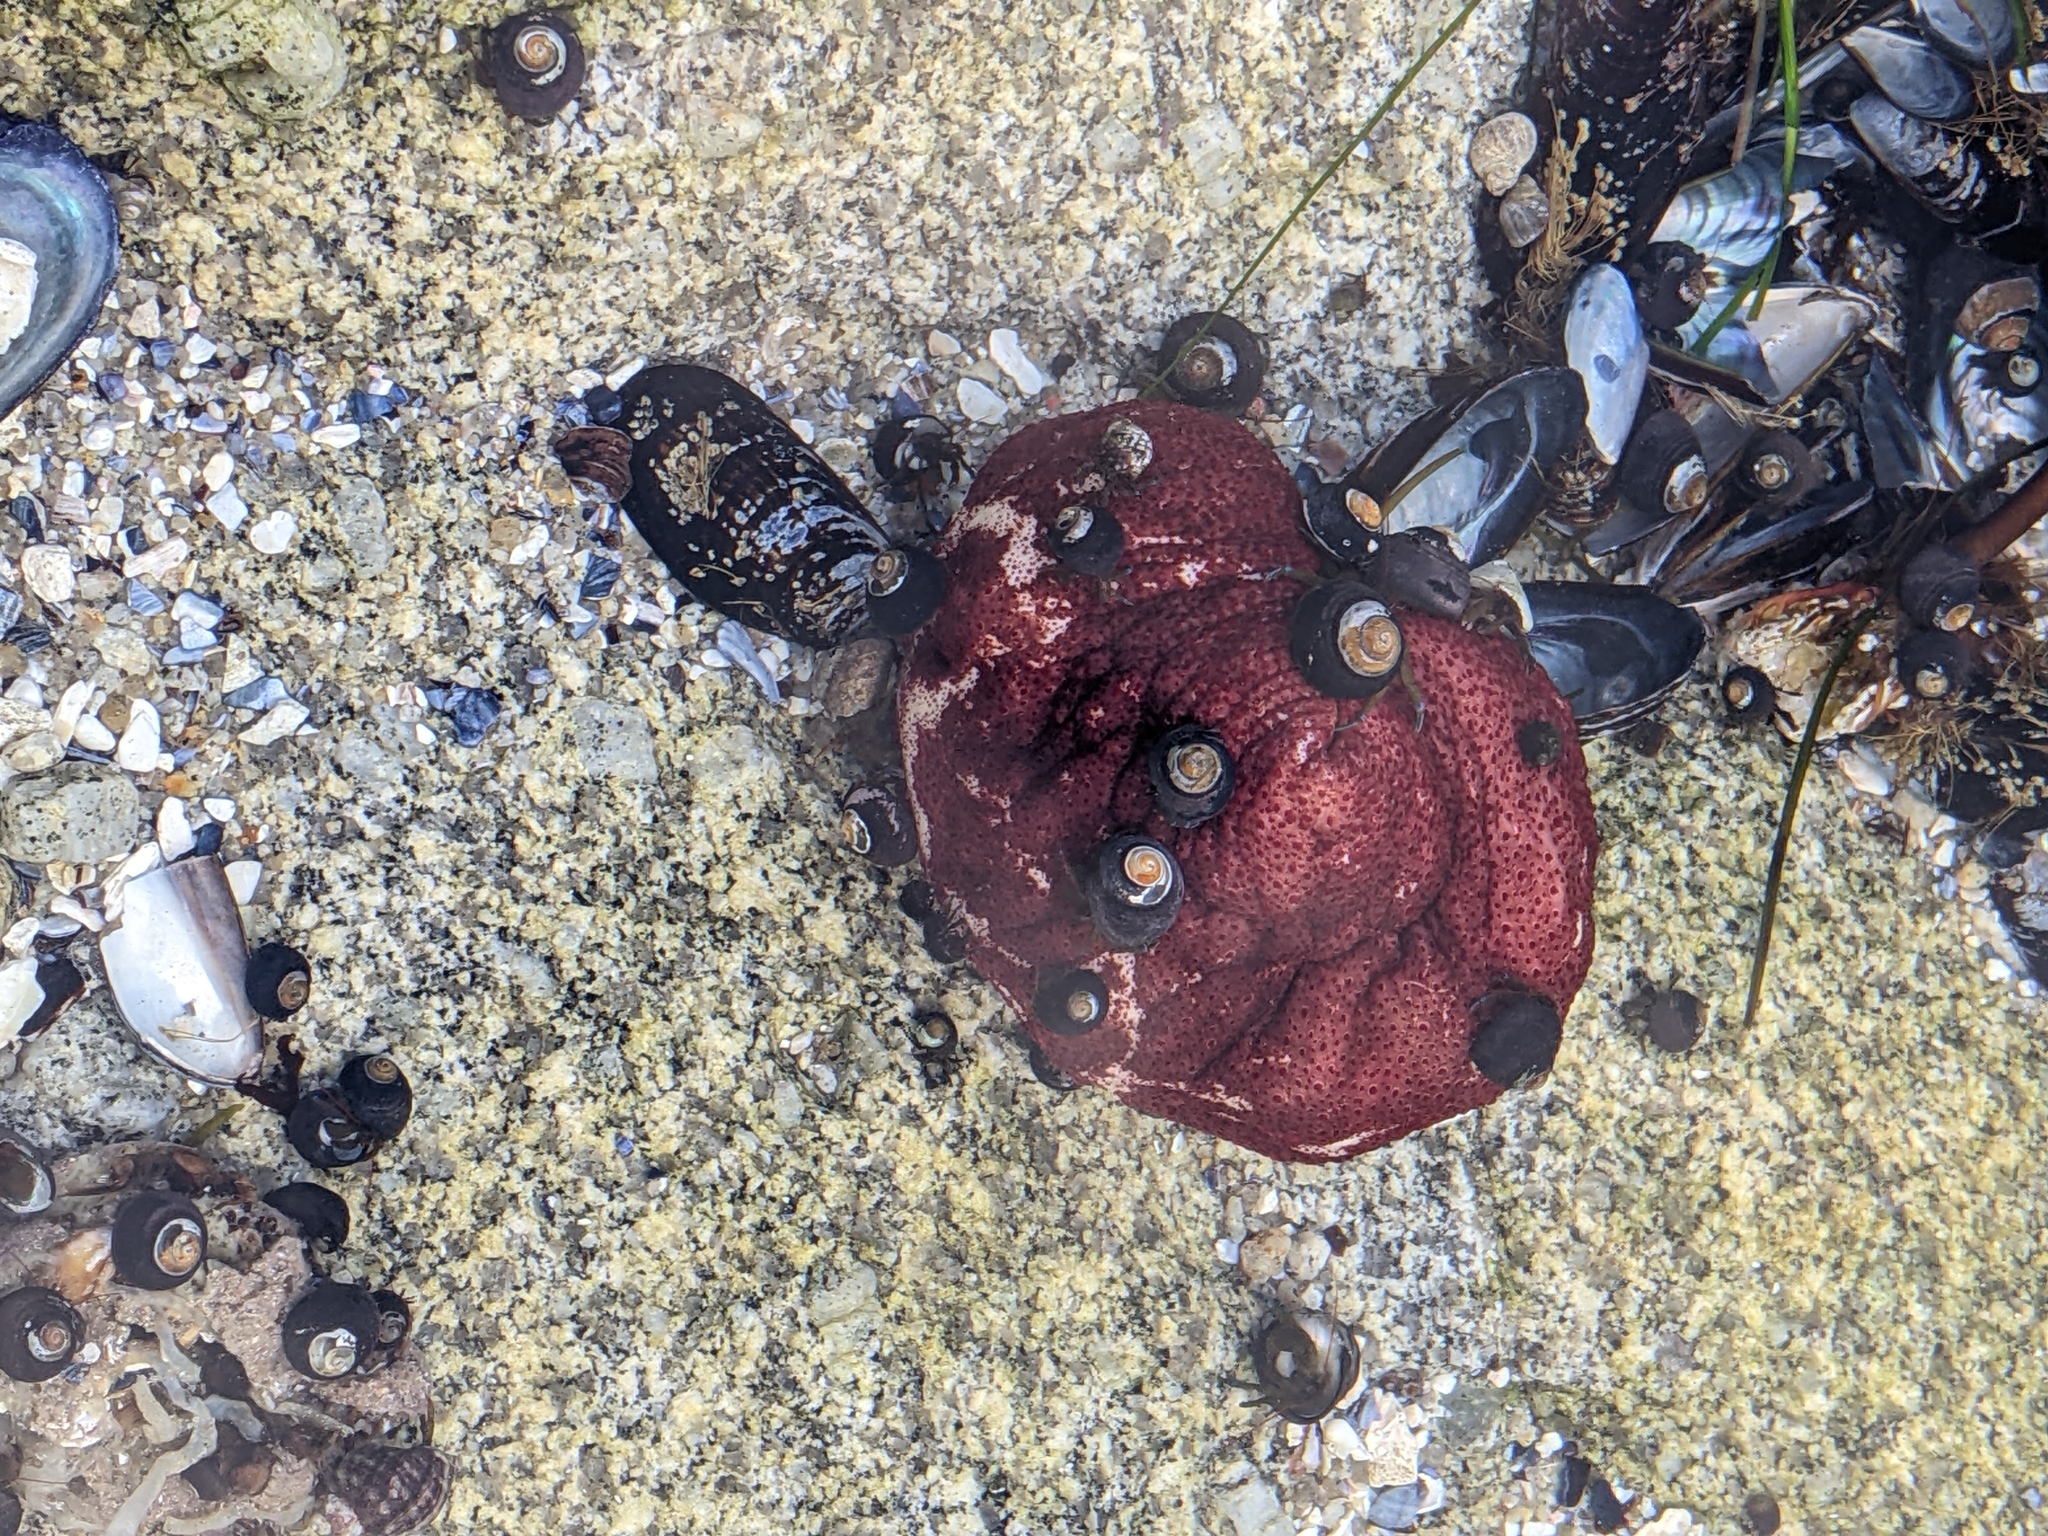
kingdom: Animalia
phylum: Mollusca
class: Polyplacophora
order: Chitonida
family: Acanthochitonidae
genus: Cryptochiton
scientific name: Cryptochiton stelleri
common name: Giant pacific chiton
